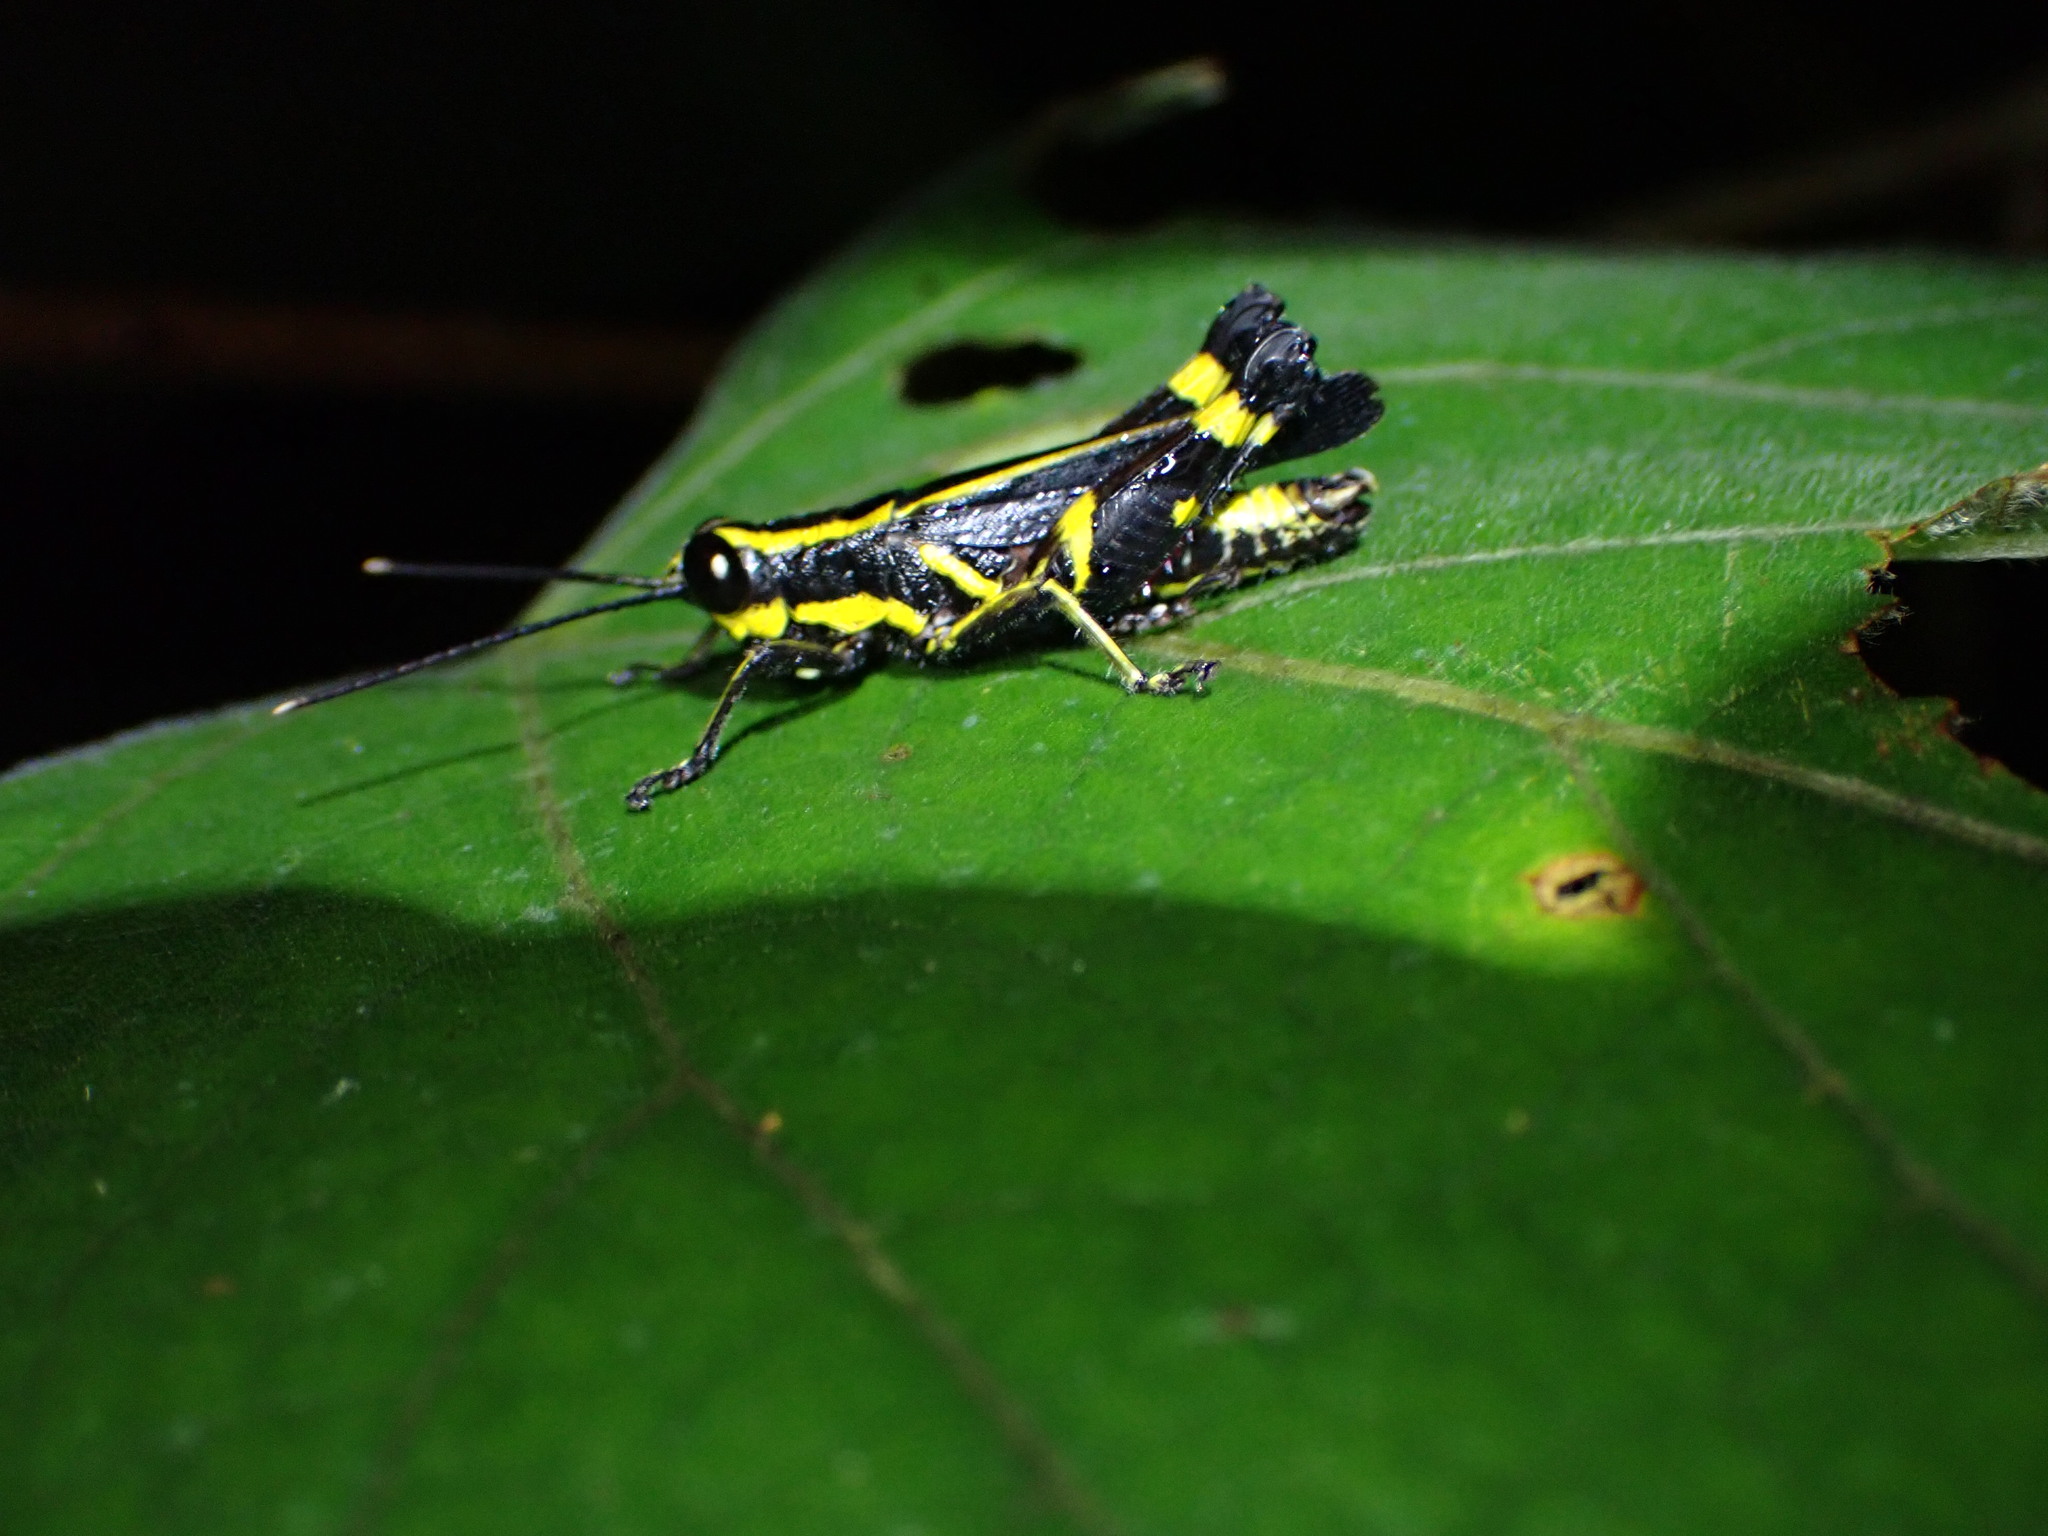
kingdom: Animalia
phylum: Arthropoda
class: Insecta
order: Orthoptera
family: Acrididae
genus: Traulia
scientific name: Traulia azureipennis
